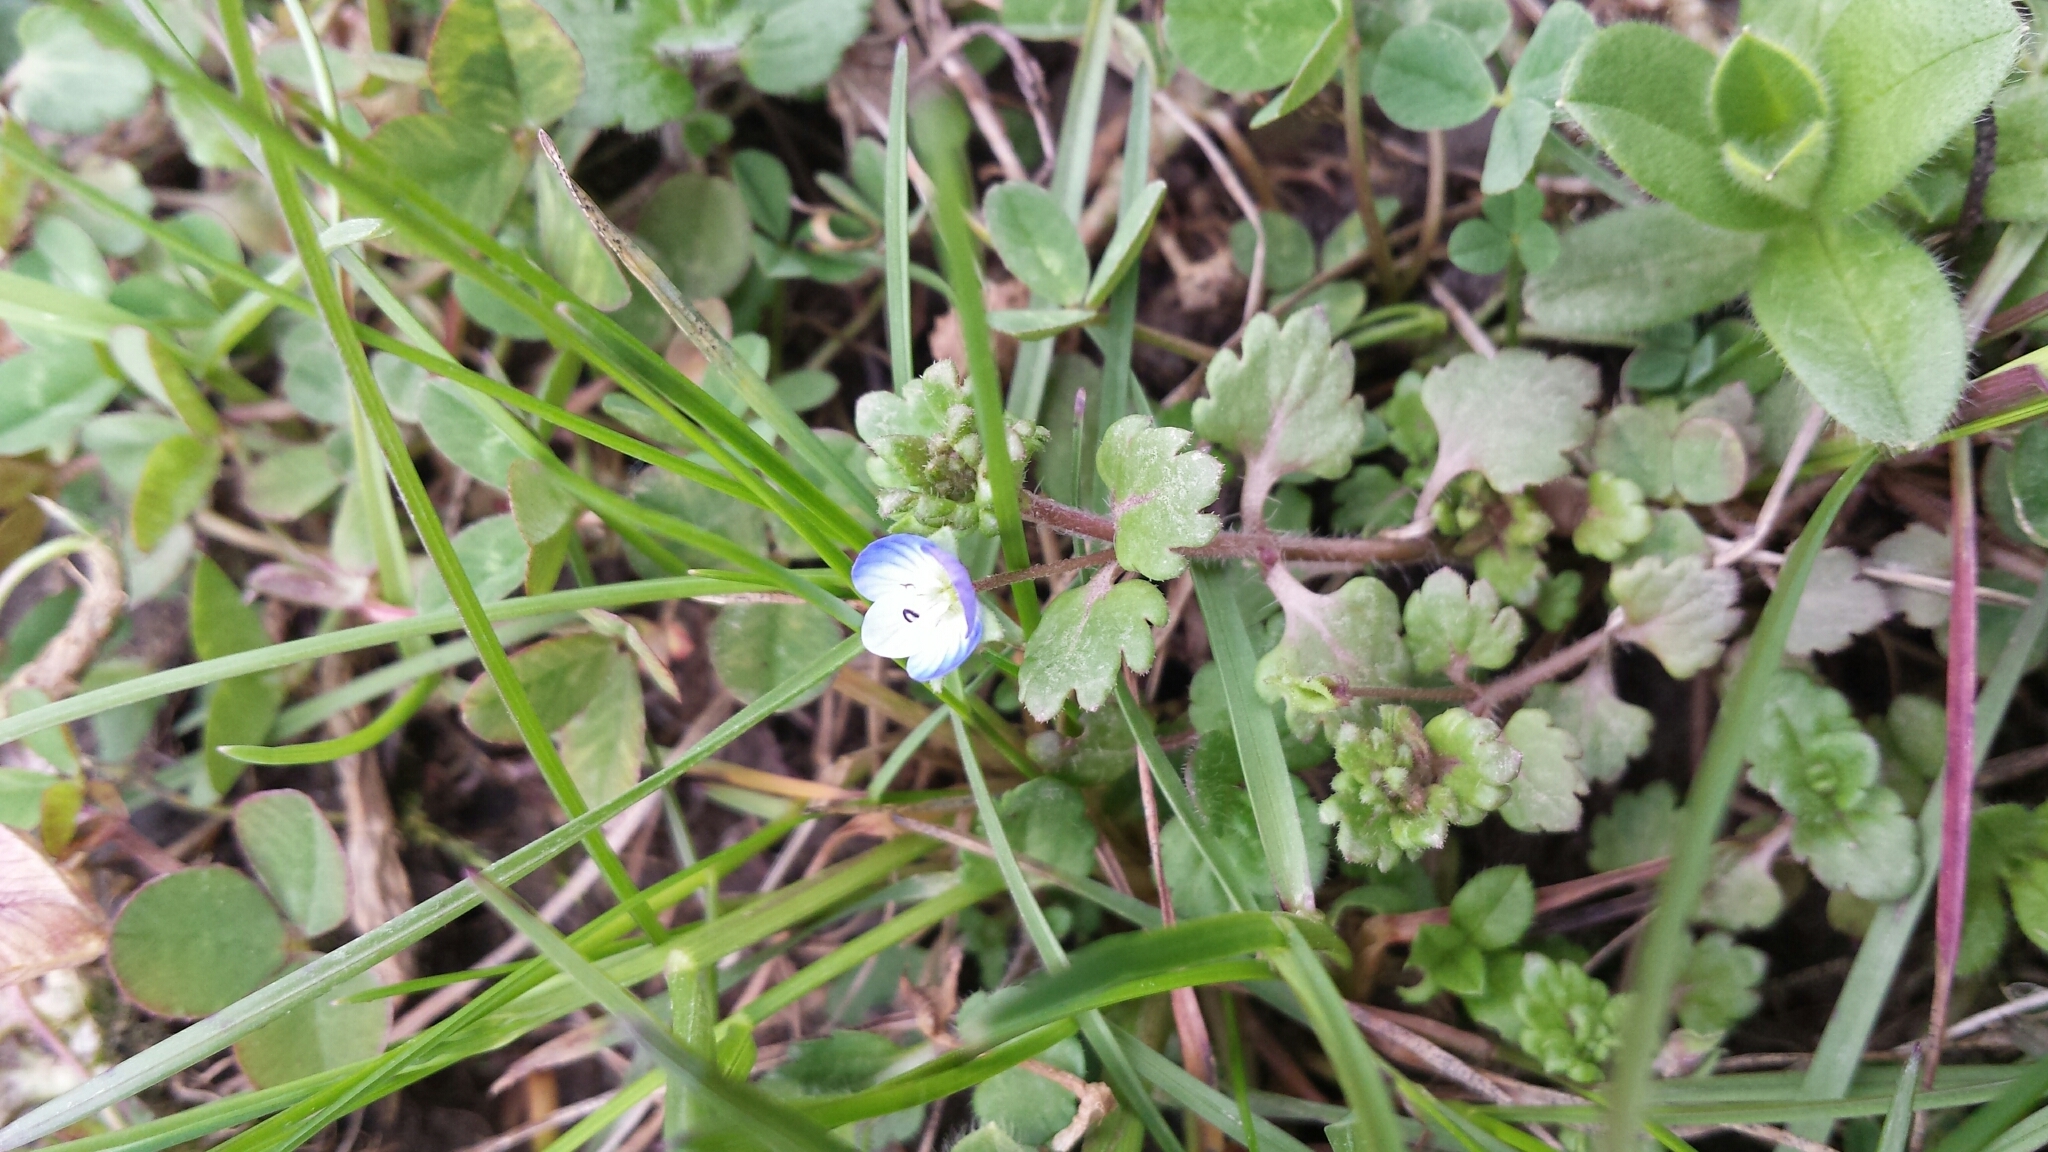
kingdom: Plantae
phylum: Tracheophyta
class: Magnoliopsida
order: Lamiales
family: Plantaginaceae
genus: Veronica
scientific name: Veronica polita
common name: Grey field-speedwell
